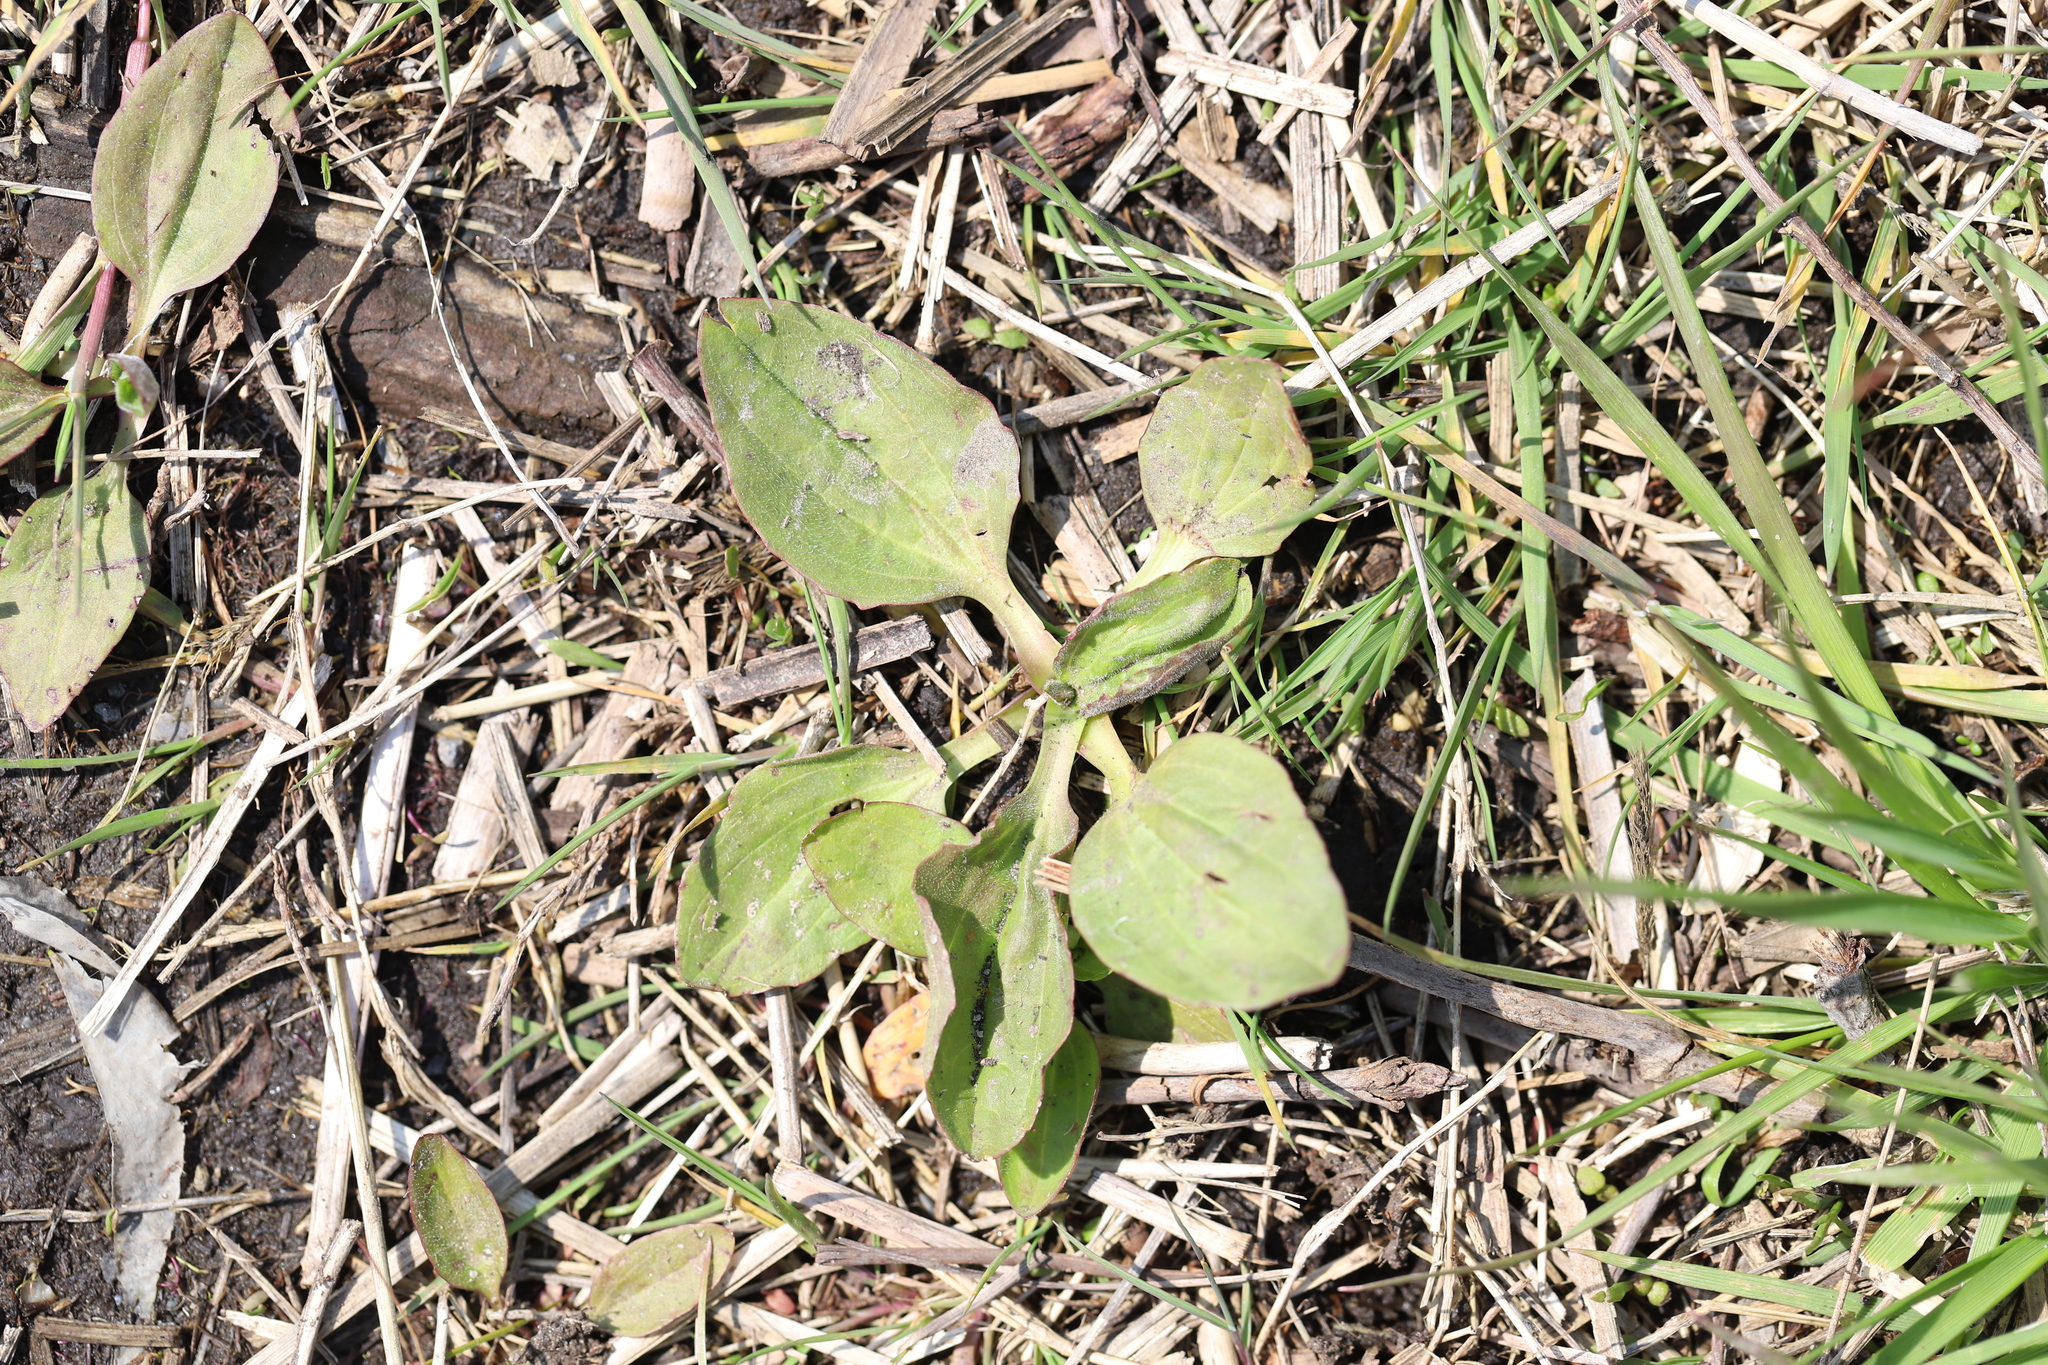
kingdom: Plantae
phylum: Tracheophyta
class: Magnoliopsida
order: Lamiales
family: Plantaginaceae
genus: Plantago
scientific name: Plantago rugelii
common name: American plantain
